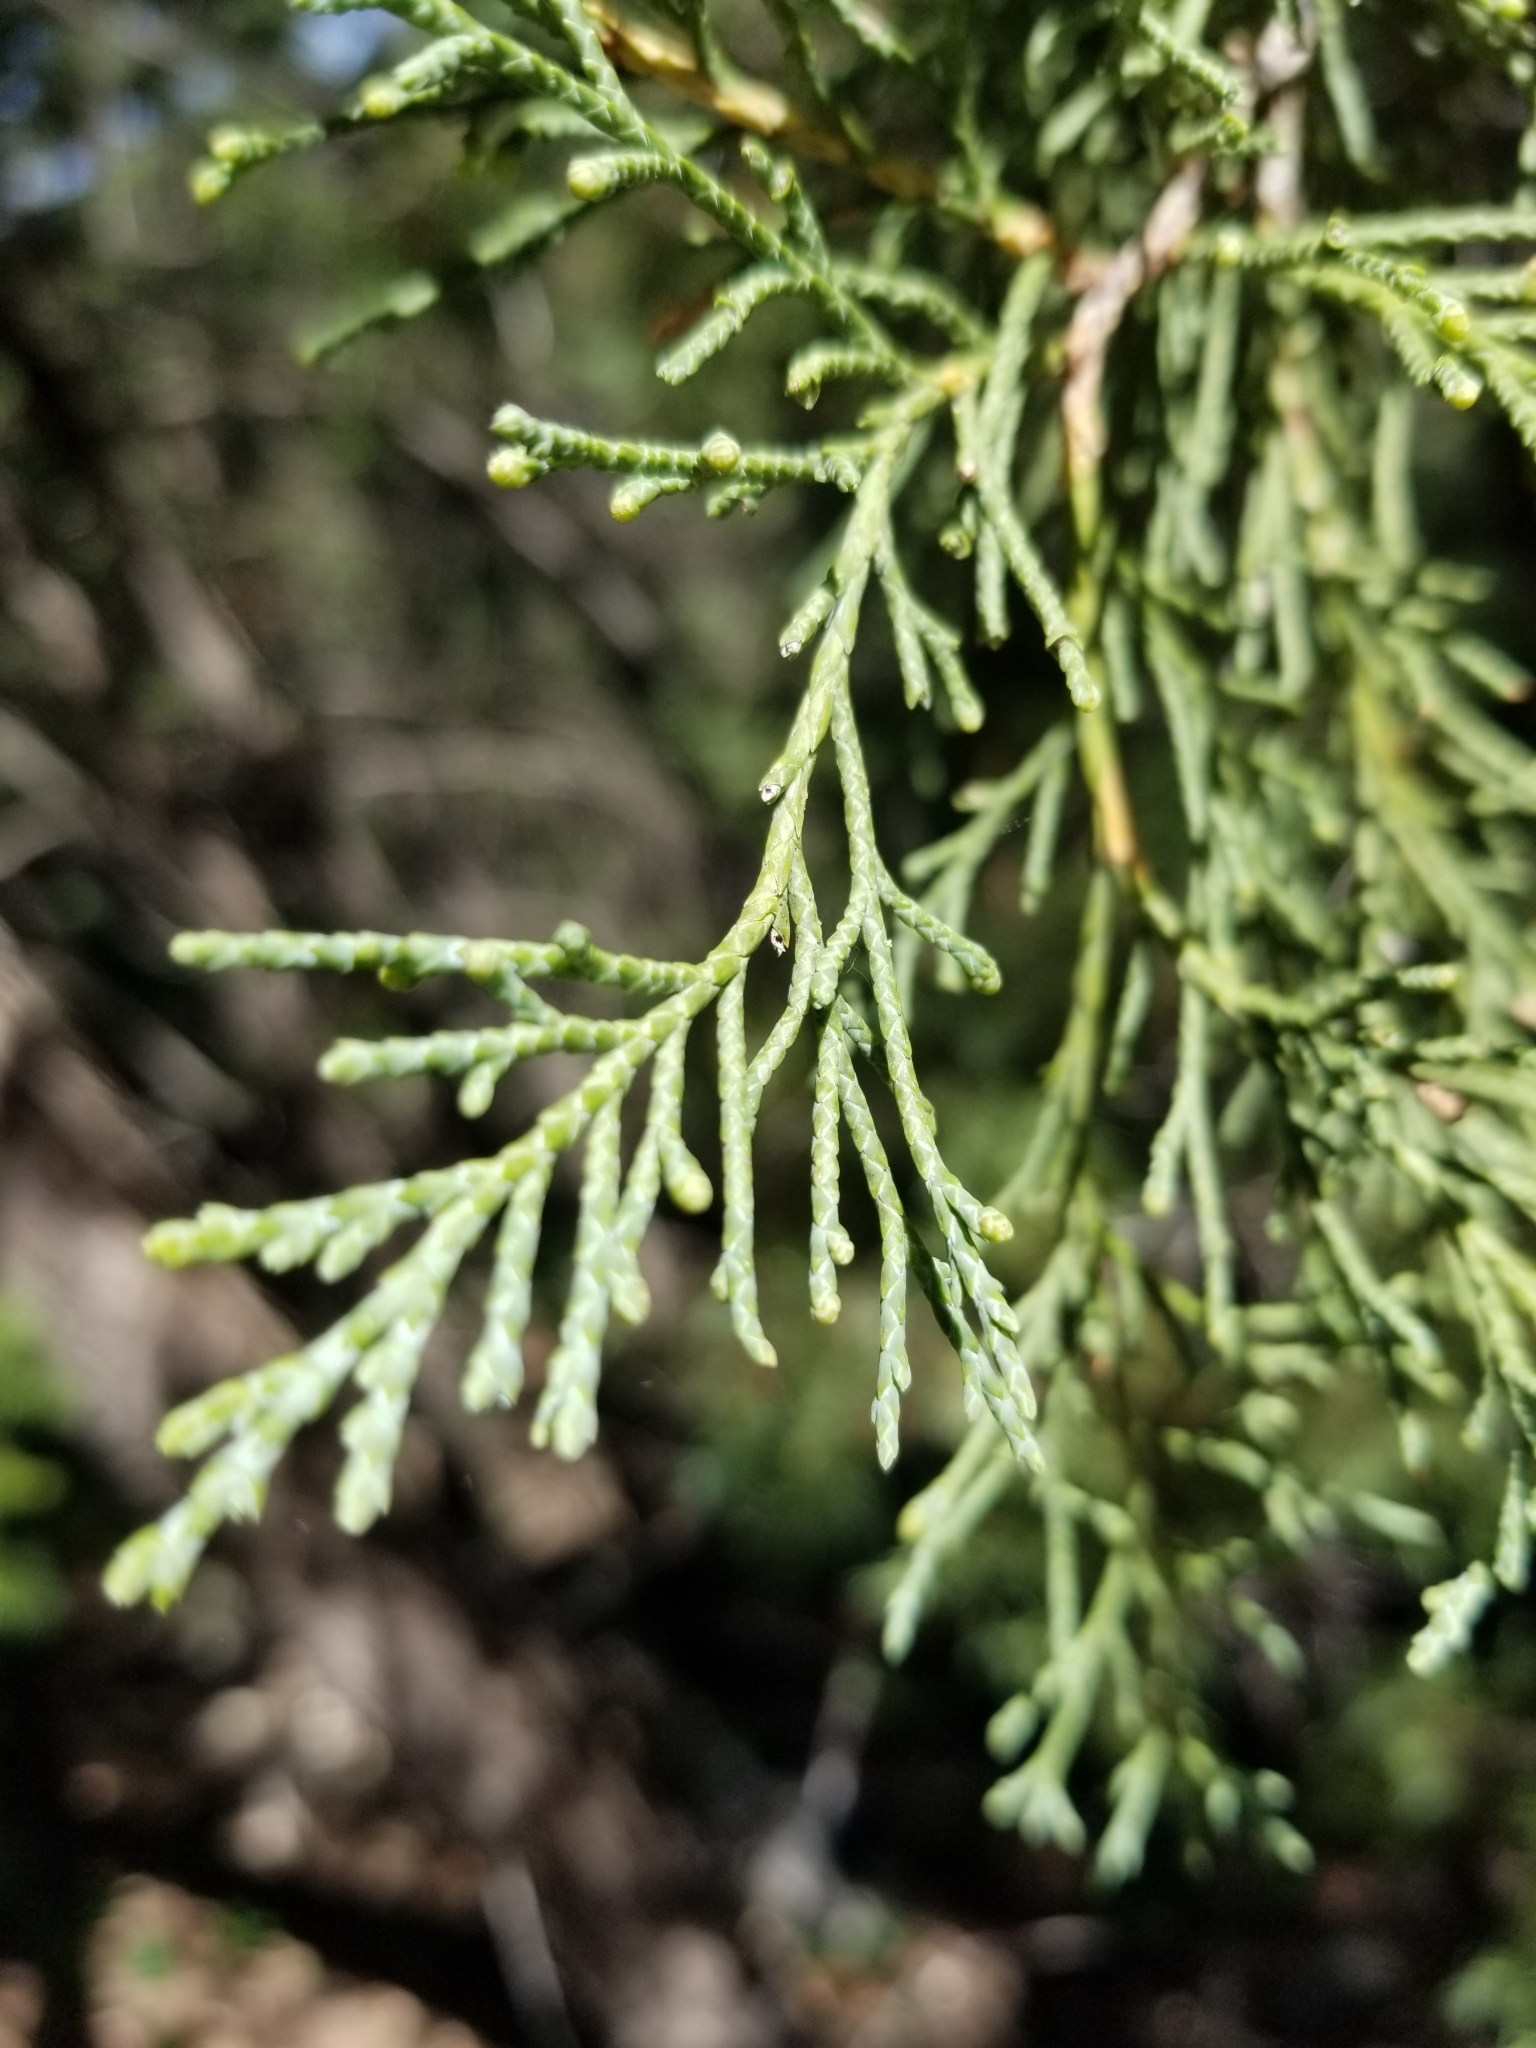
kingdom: Plantae
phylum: Tracheophyta
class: Pinopsida
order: Pinales
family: Cupressaceae
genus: Juniperus
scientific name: Juniperus scopulorum
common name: Rocky mountain juniper
